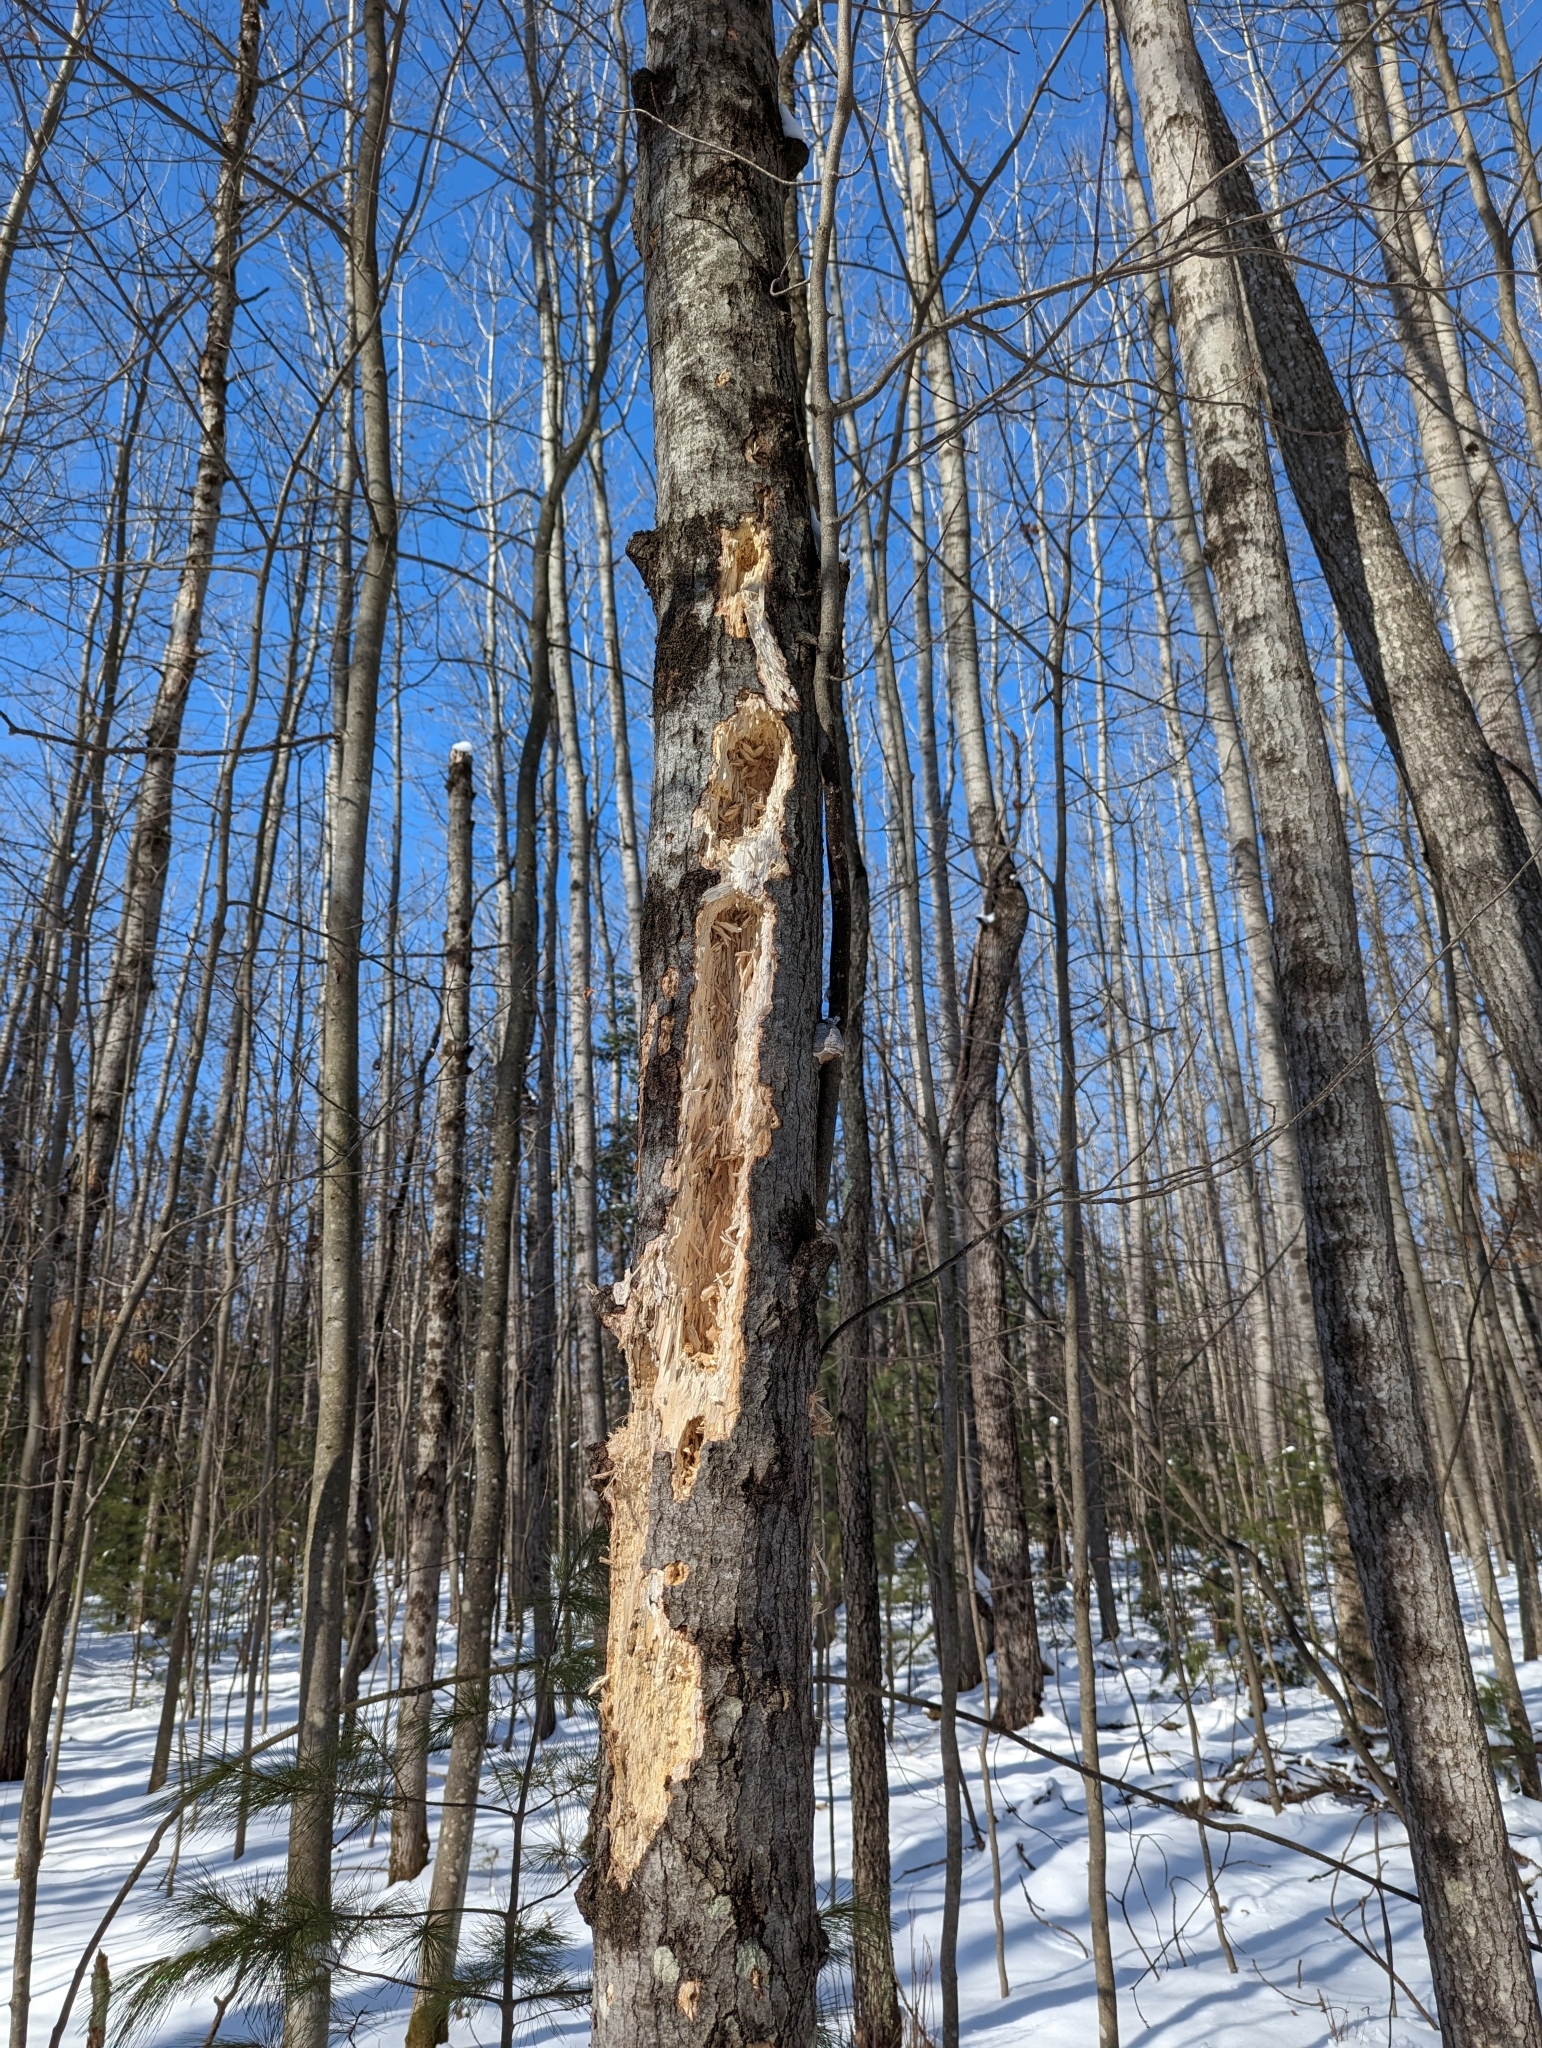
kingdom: Animalia
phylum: Chordata
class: Aves
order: Piciformes
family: Picidae
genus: Dryocopus
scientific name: Dryocopus pileatus
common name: Pileated woodpecker
